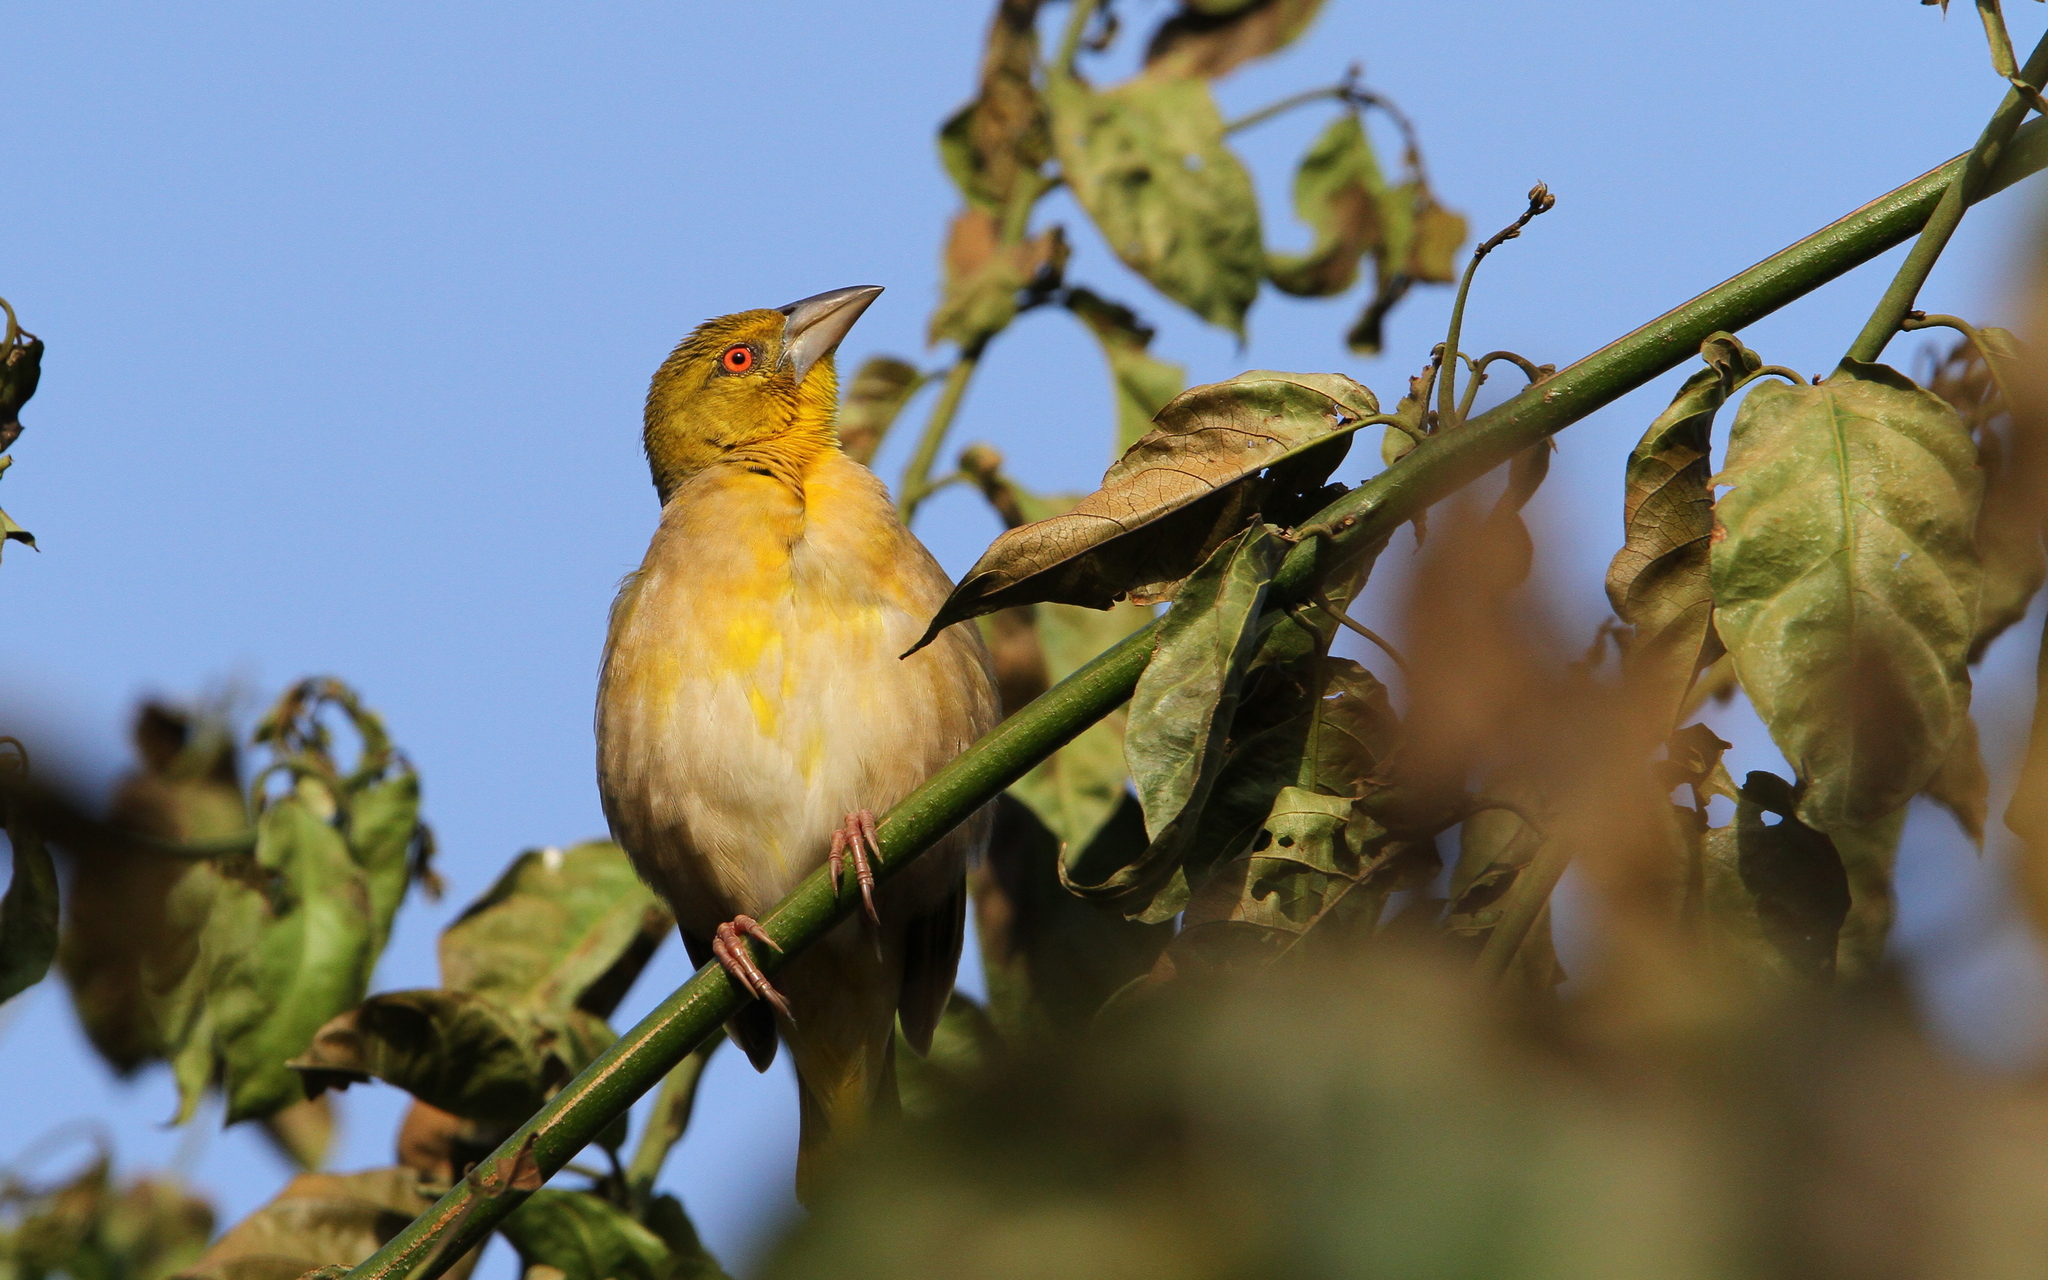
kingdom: Animalia
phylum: Chordata
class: Aves
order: Passeriformes
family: Ploceidae
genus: Ploceus
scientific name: Ploceus cucullatus
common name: Village weaver
